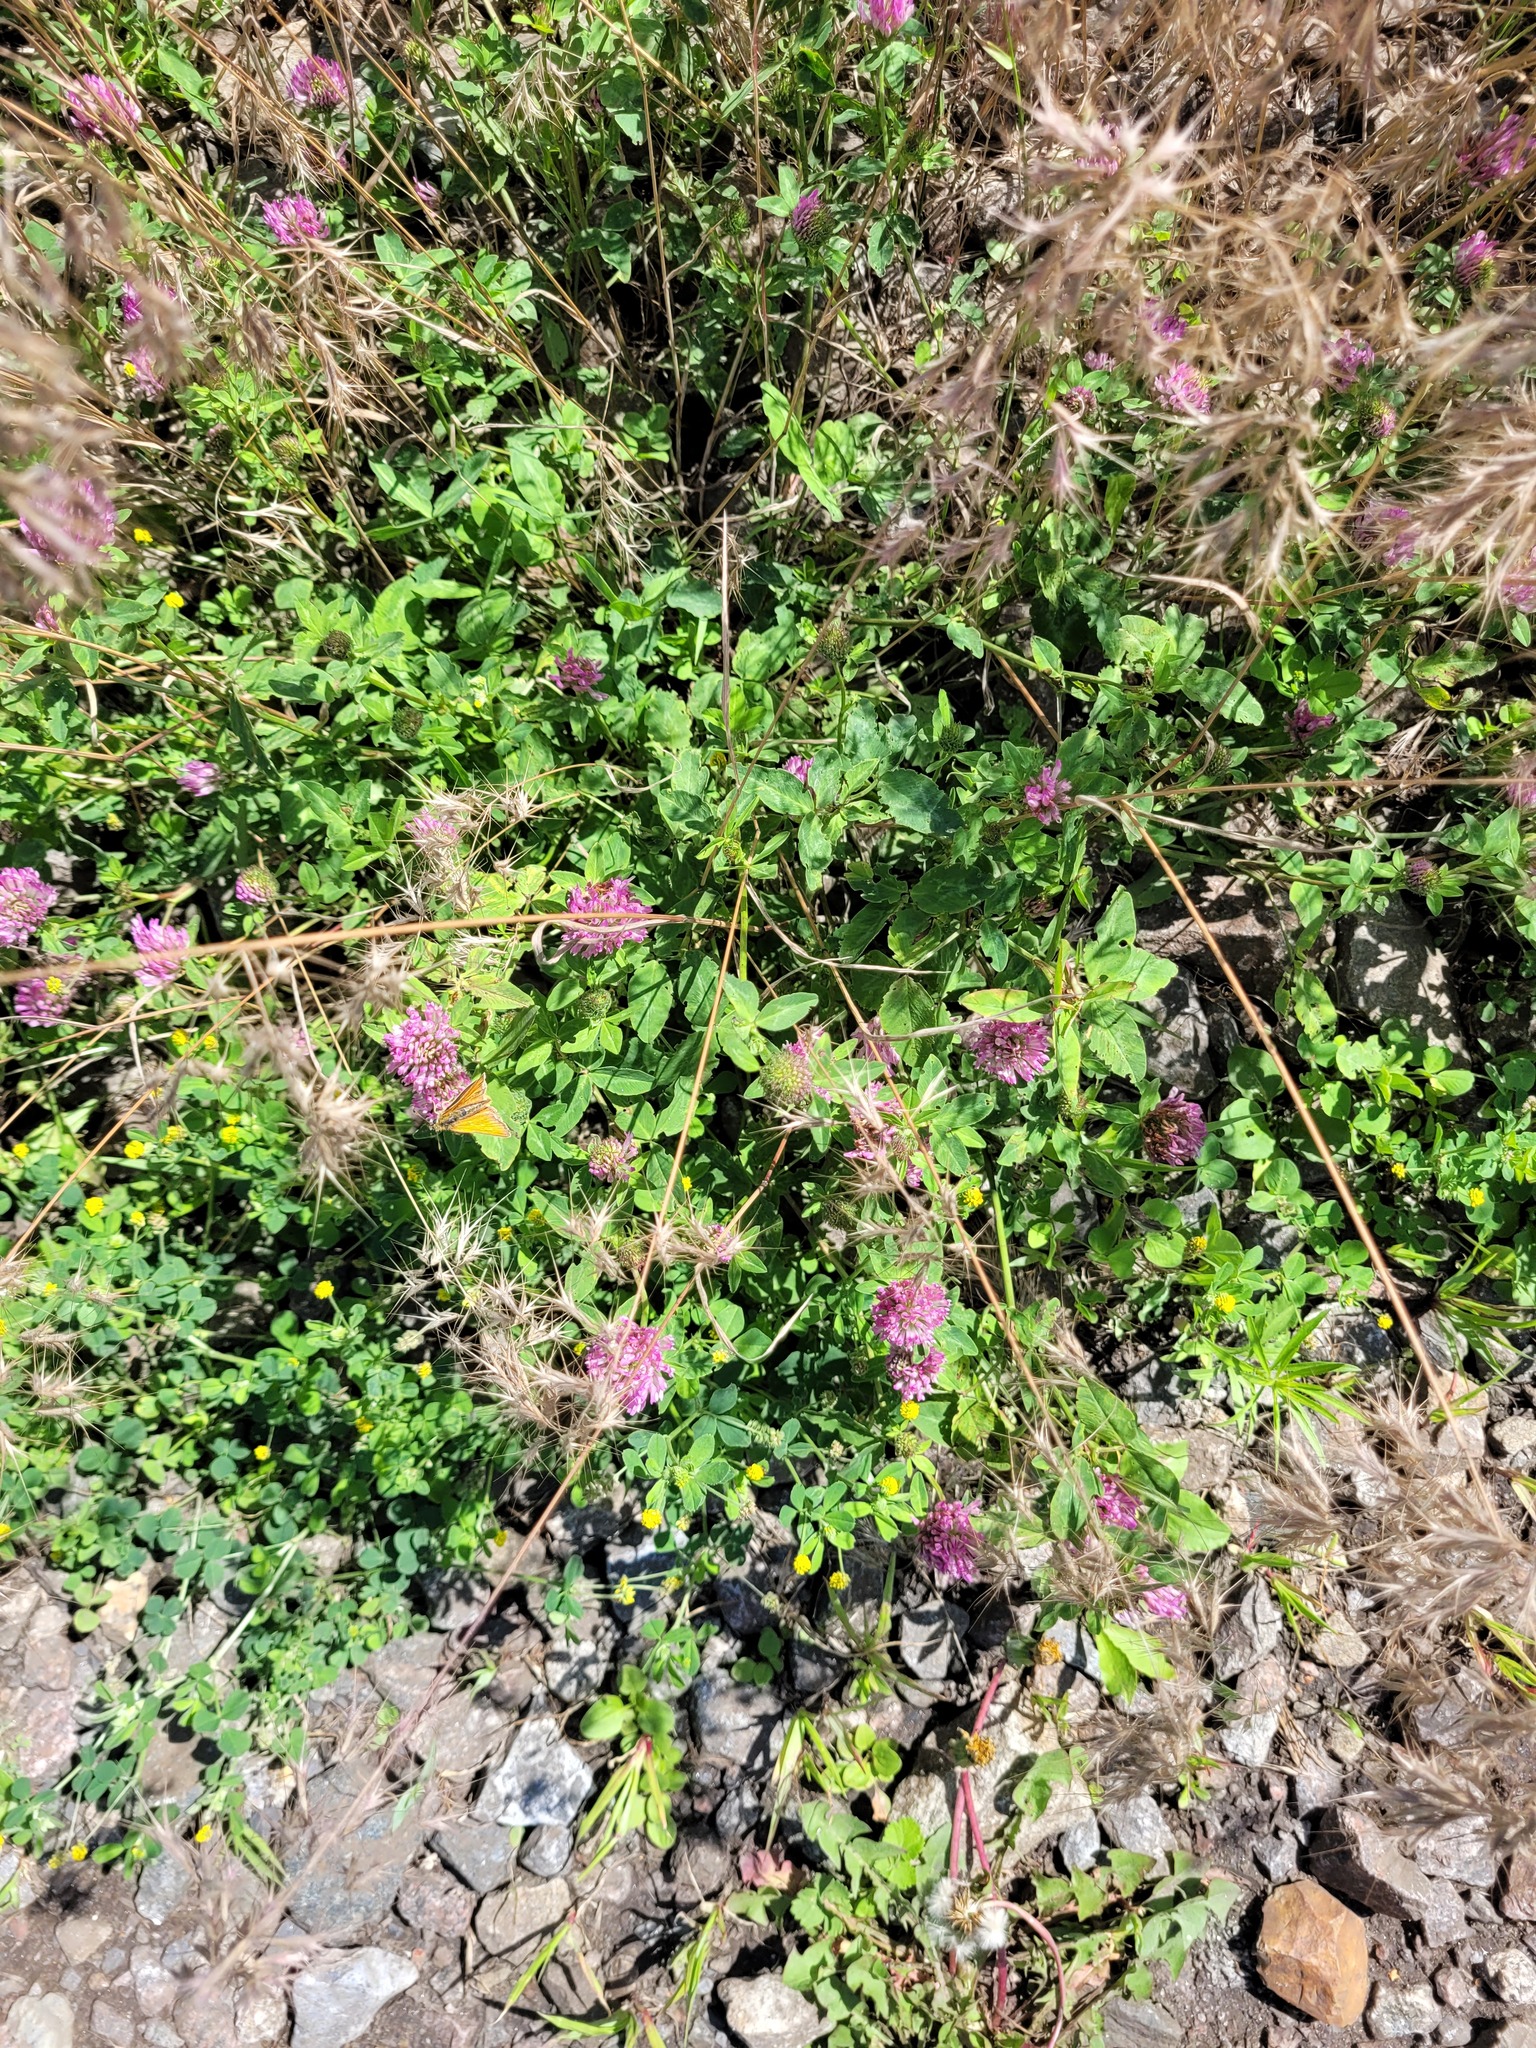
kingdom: Plantae
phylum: Tracheophyta
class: Magnoliopsida
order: Fabales
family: Fabaceae
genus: Trifolium
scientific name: Trifolium pratense
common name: Red clover
